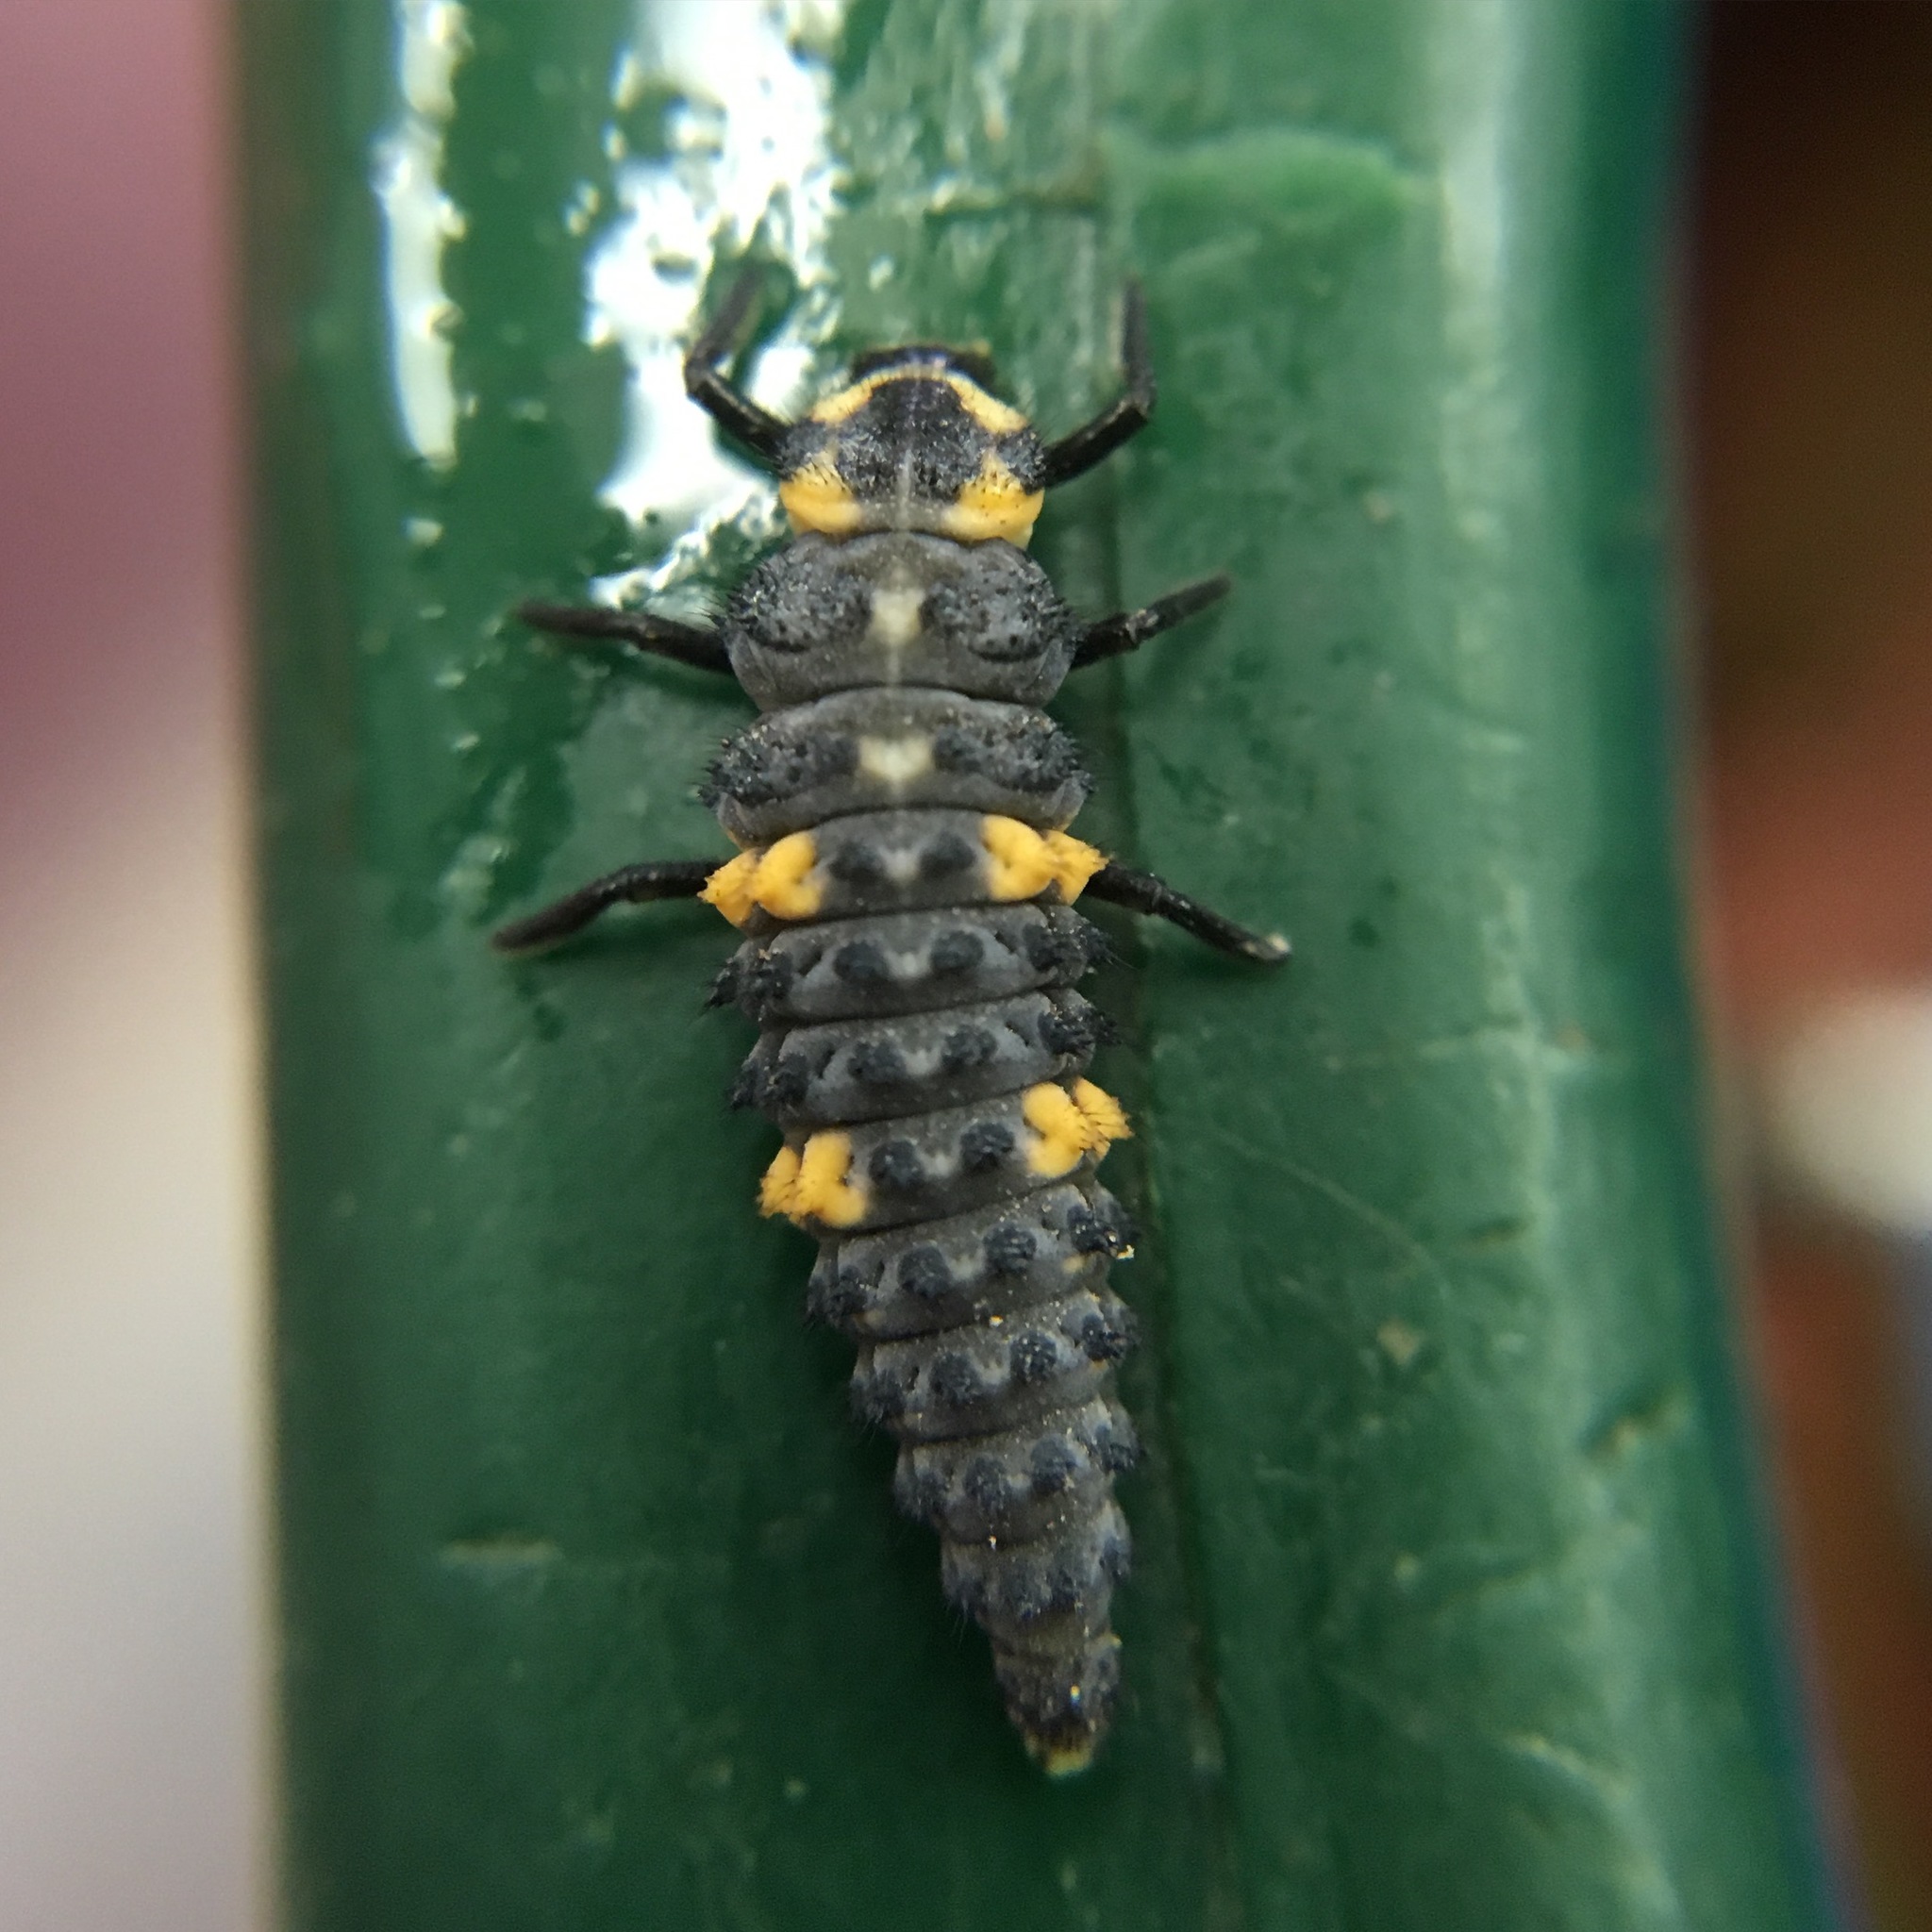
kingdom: Animalia
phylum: Arthropoda
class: Insecta
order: Coleoptera
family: Coccinellidae
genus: Coccinella
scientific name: Coccinella septempunctata
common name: Sevenspotted lady beetle
